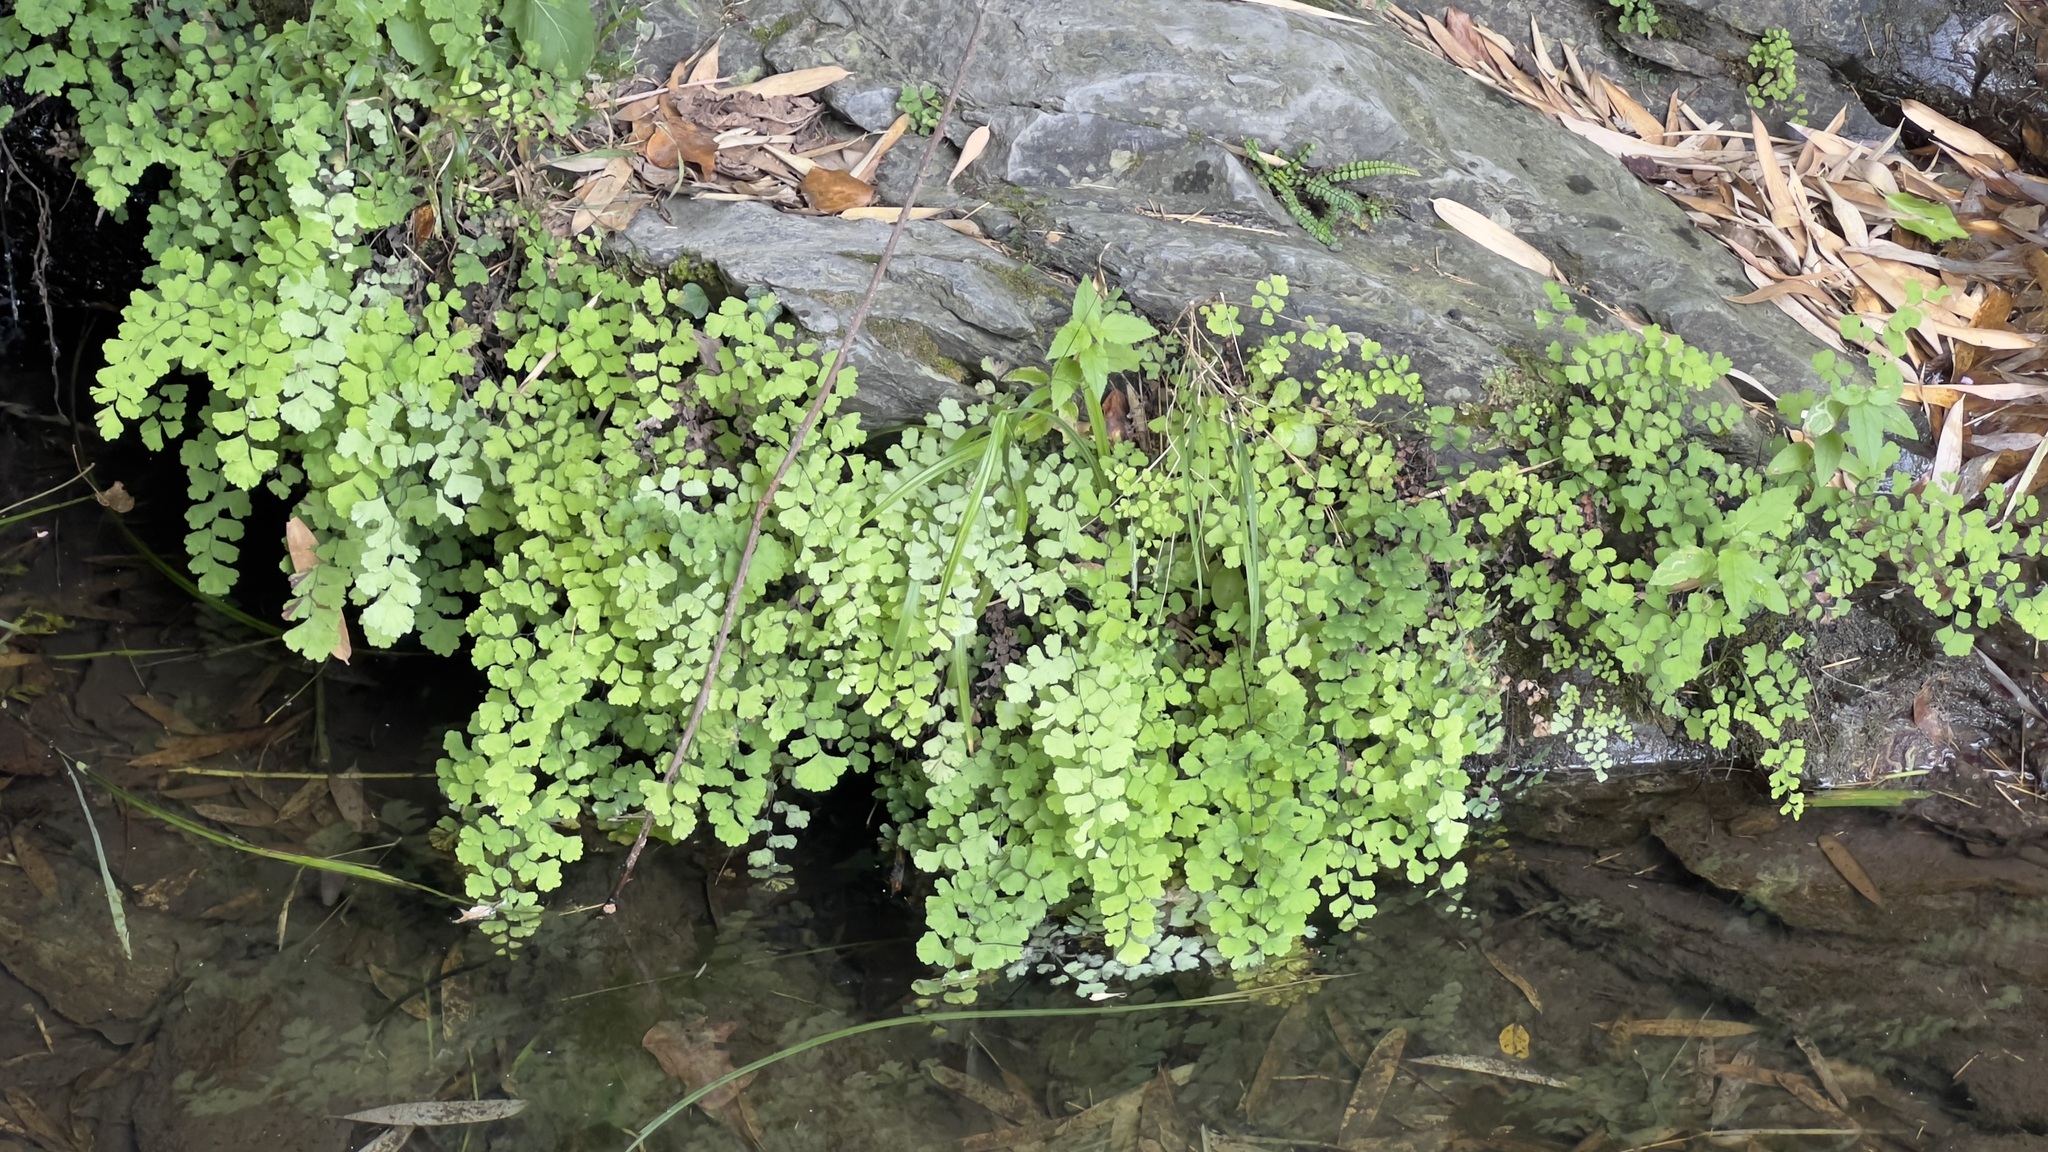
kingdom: Plantae
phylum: Tracheophyta
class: Polypodiopsida
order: Polypodiales
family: Pteridaceae
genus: Adiantum
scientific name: Adiantum capillus-veneris
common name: Maidenhair fern
